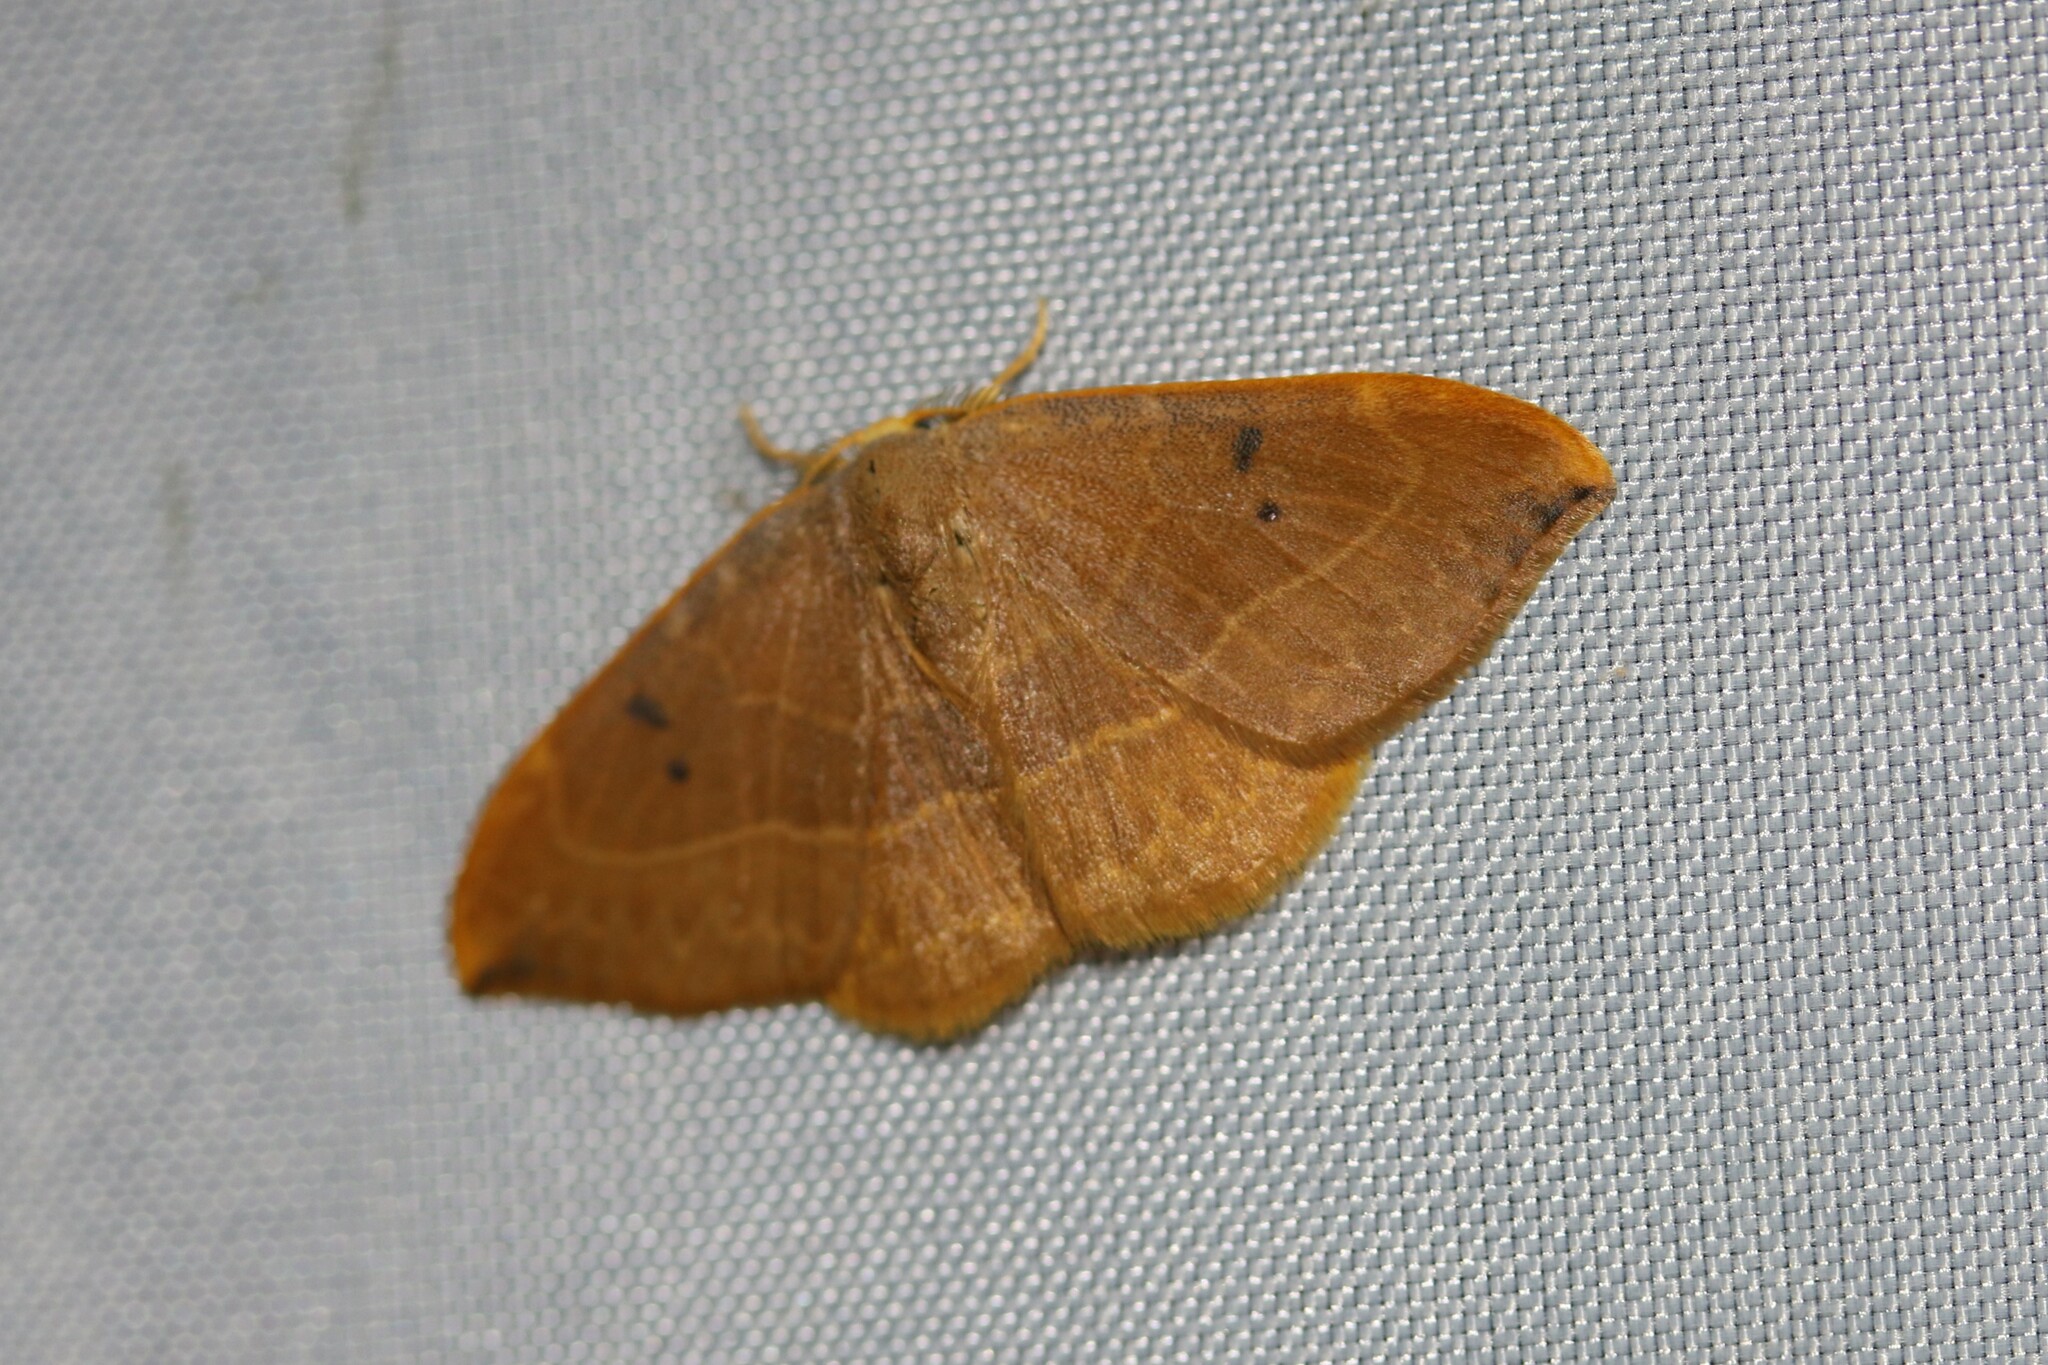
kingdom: Animalia
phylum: Arthropoda
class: Insecta
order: Lepidoptera
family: Drepanidae
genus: Watsonalla
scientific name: Watsonalla binaria
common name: Oak hook-tip
